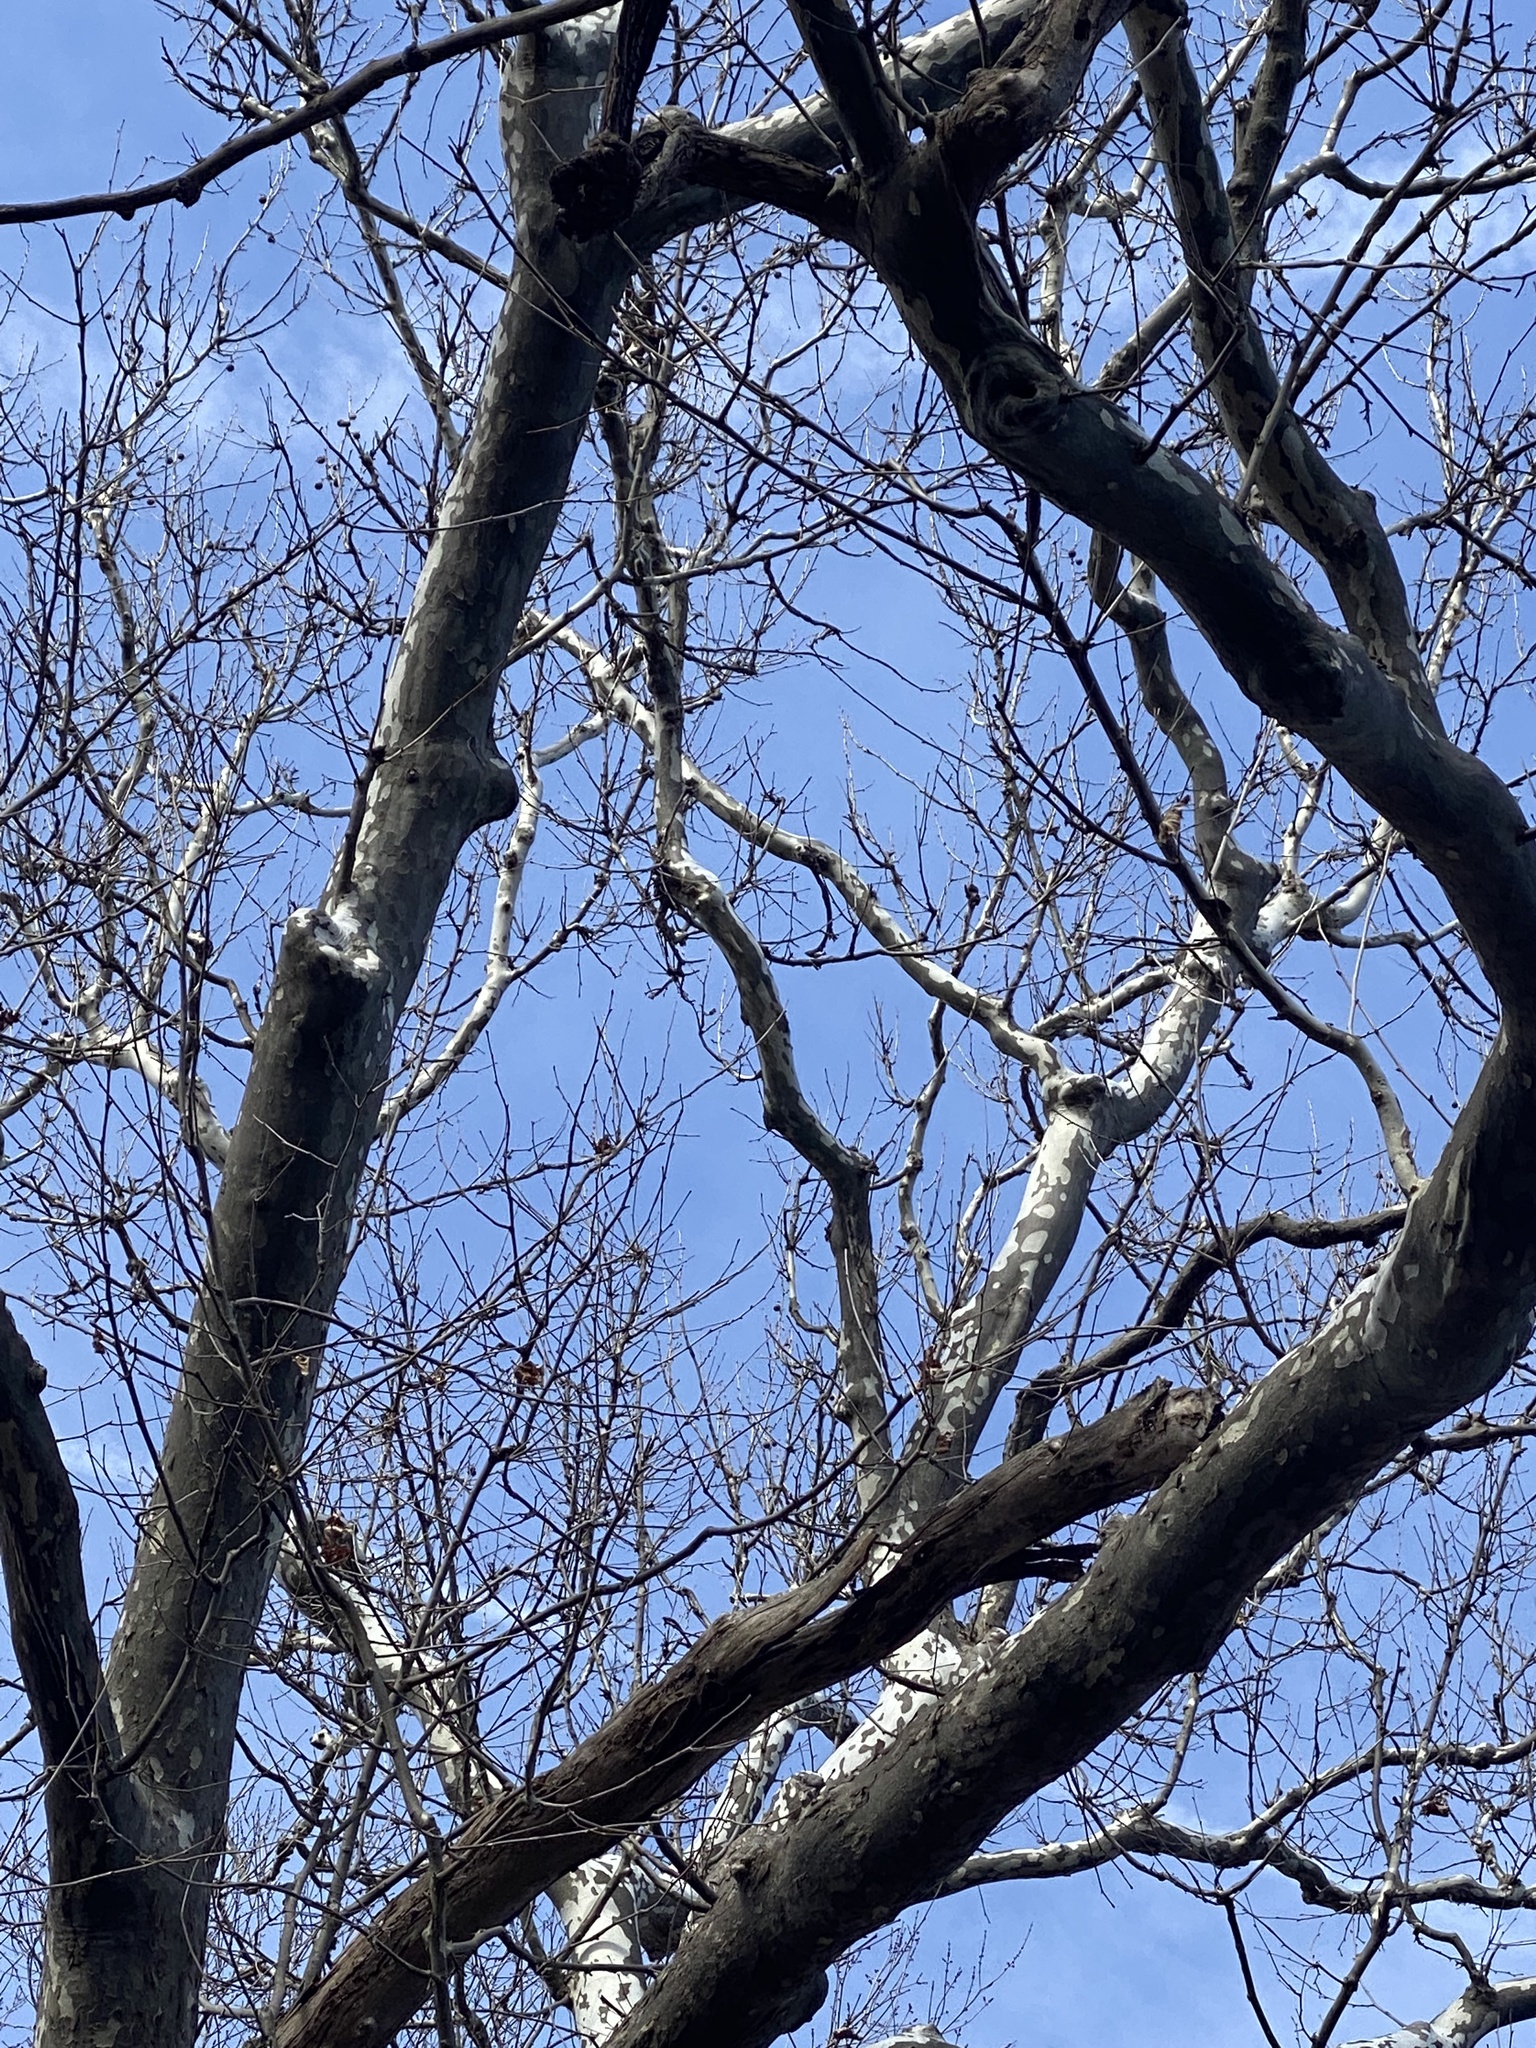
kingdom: Plantae
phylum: Tracheophyta
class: Magnoliopsida
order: Proteales
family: Platanaceae
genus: Platanus
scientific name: Platanus occidentalis
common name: American sycamore
